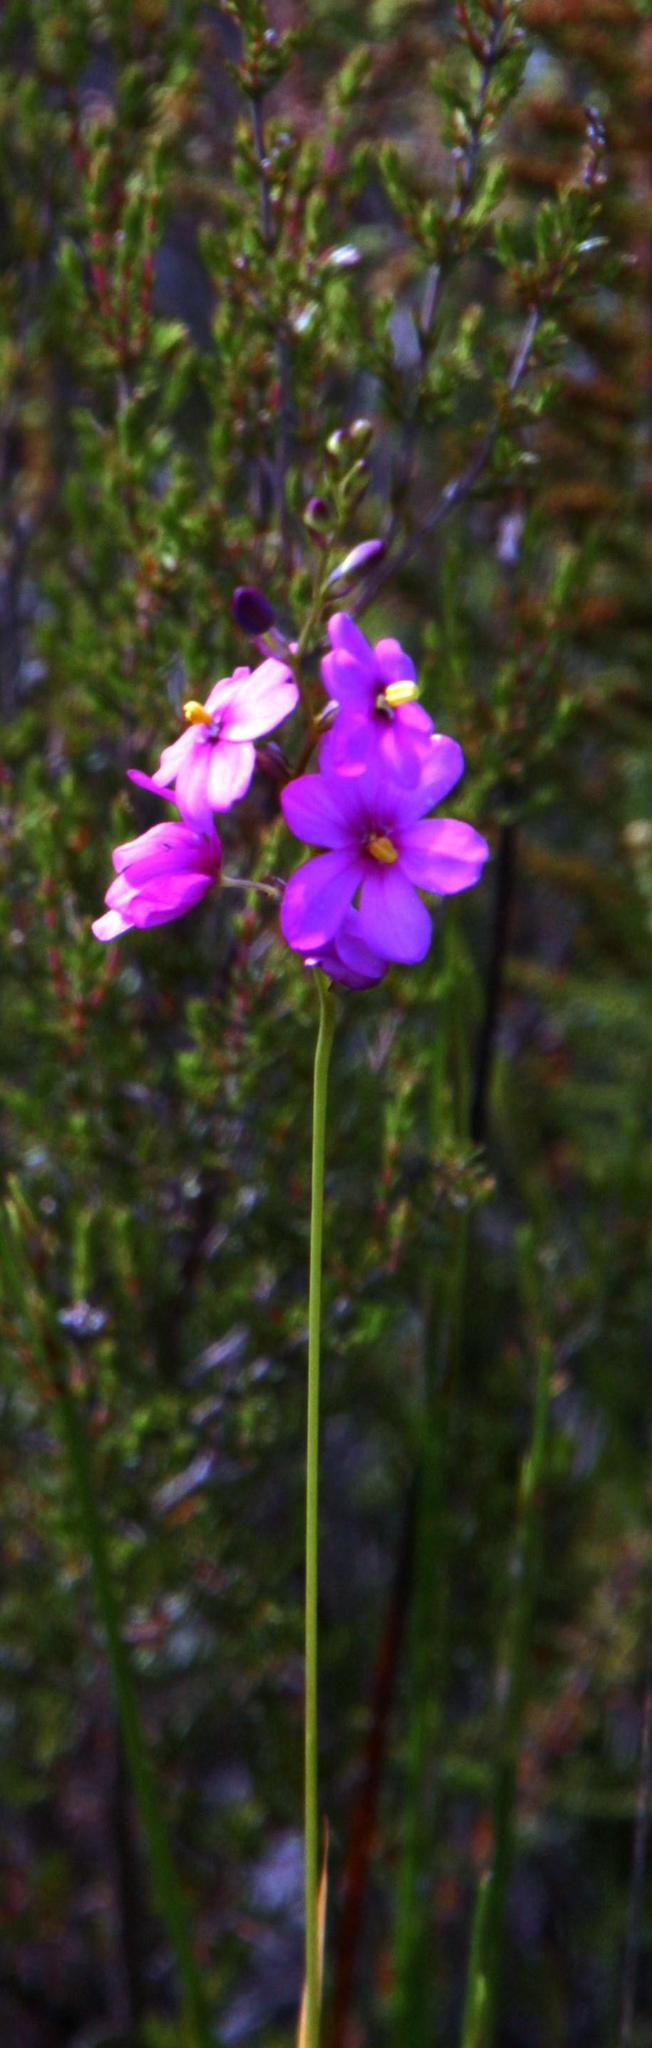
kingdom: Plantae
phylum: Tracheophyta
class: Liliopsida
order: Asparagales
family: Iridaceae
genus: Ixia
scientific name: Ixia stricta
